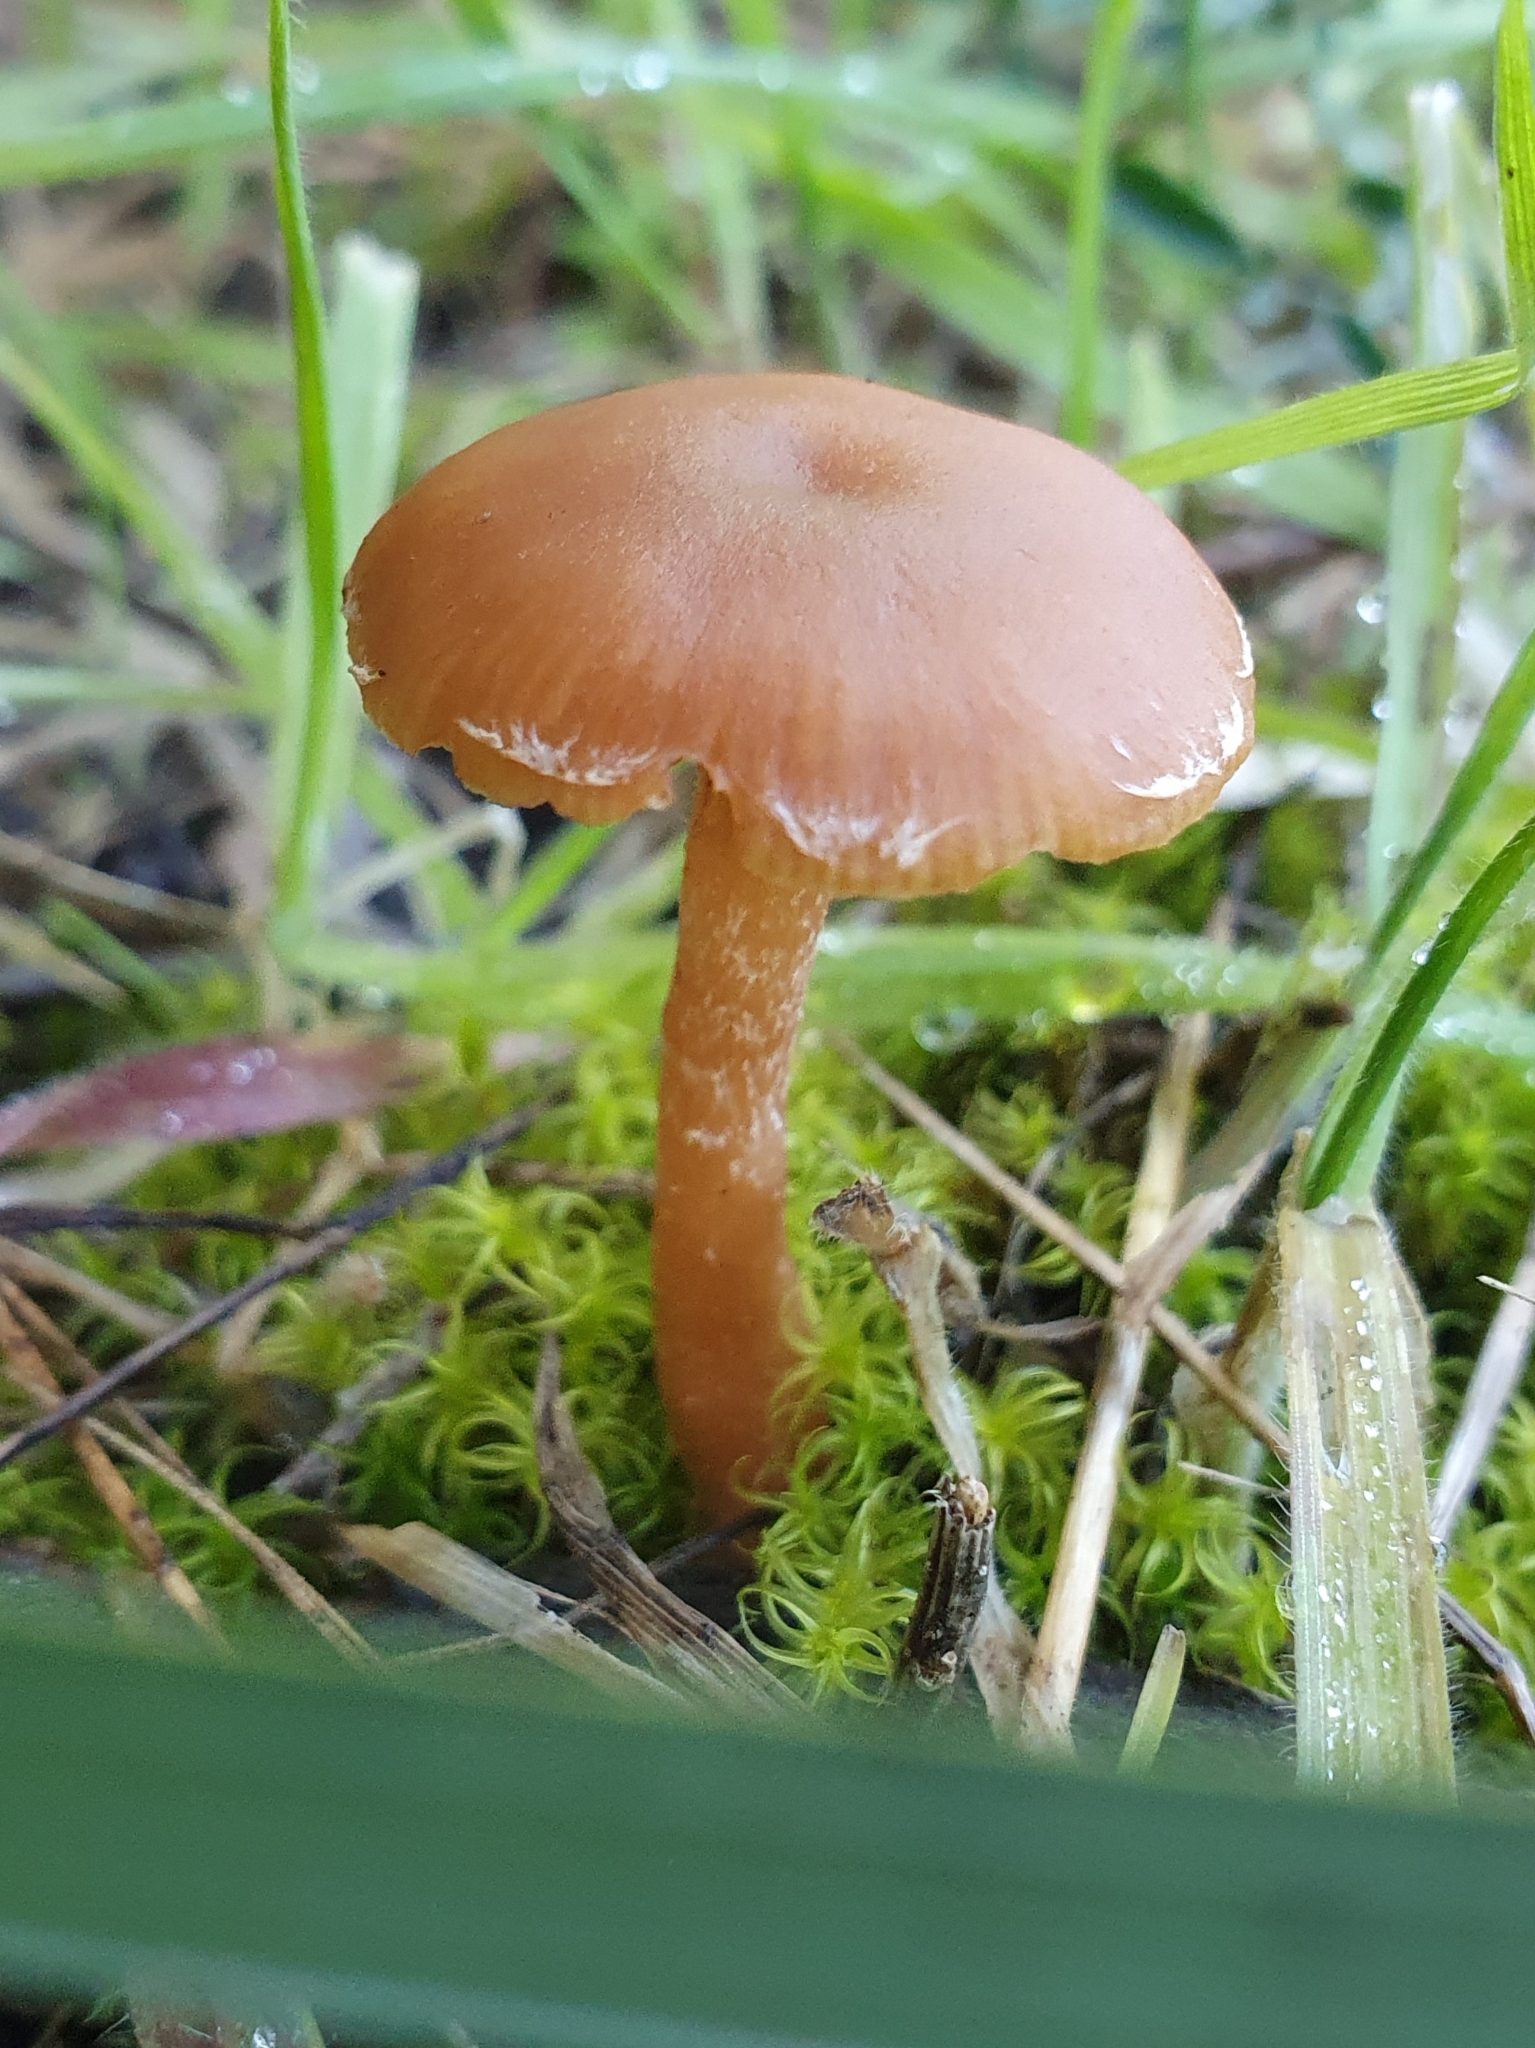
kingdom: Fungi
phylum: Basidiomycota
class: Agaricomycetes
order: Agaricales
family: Tubariaceae
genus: Tubaria
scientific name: Tubaria romagnesiana
